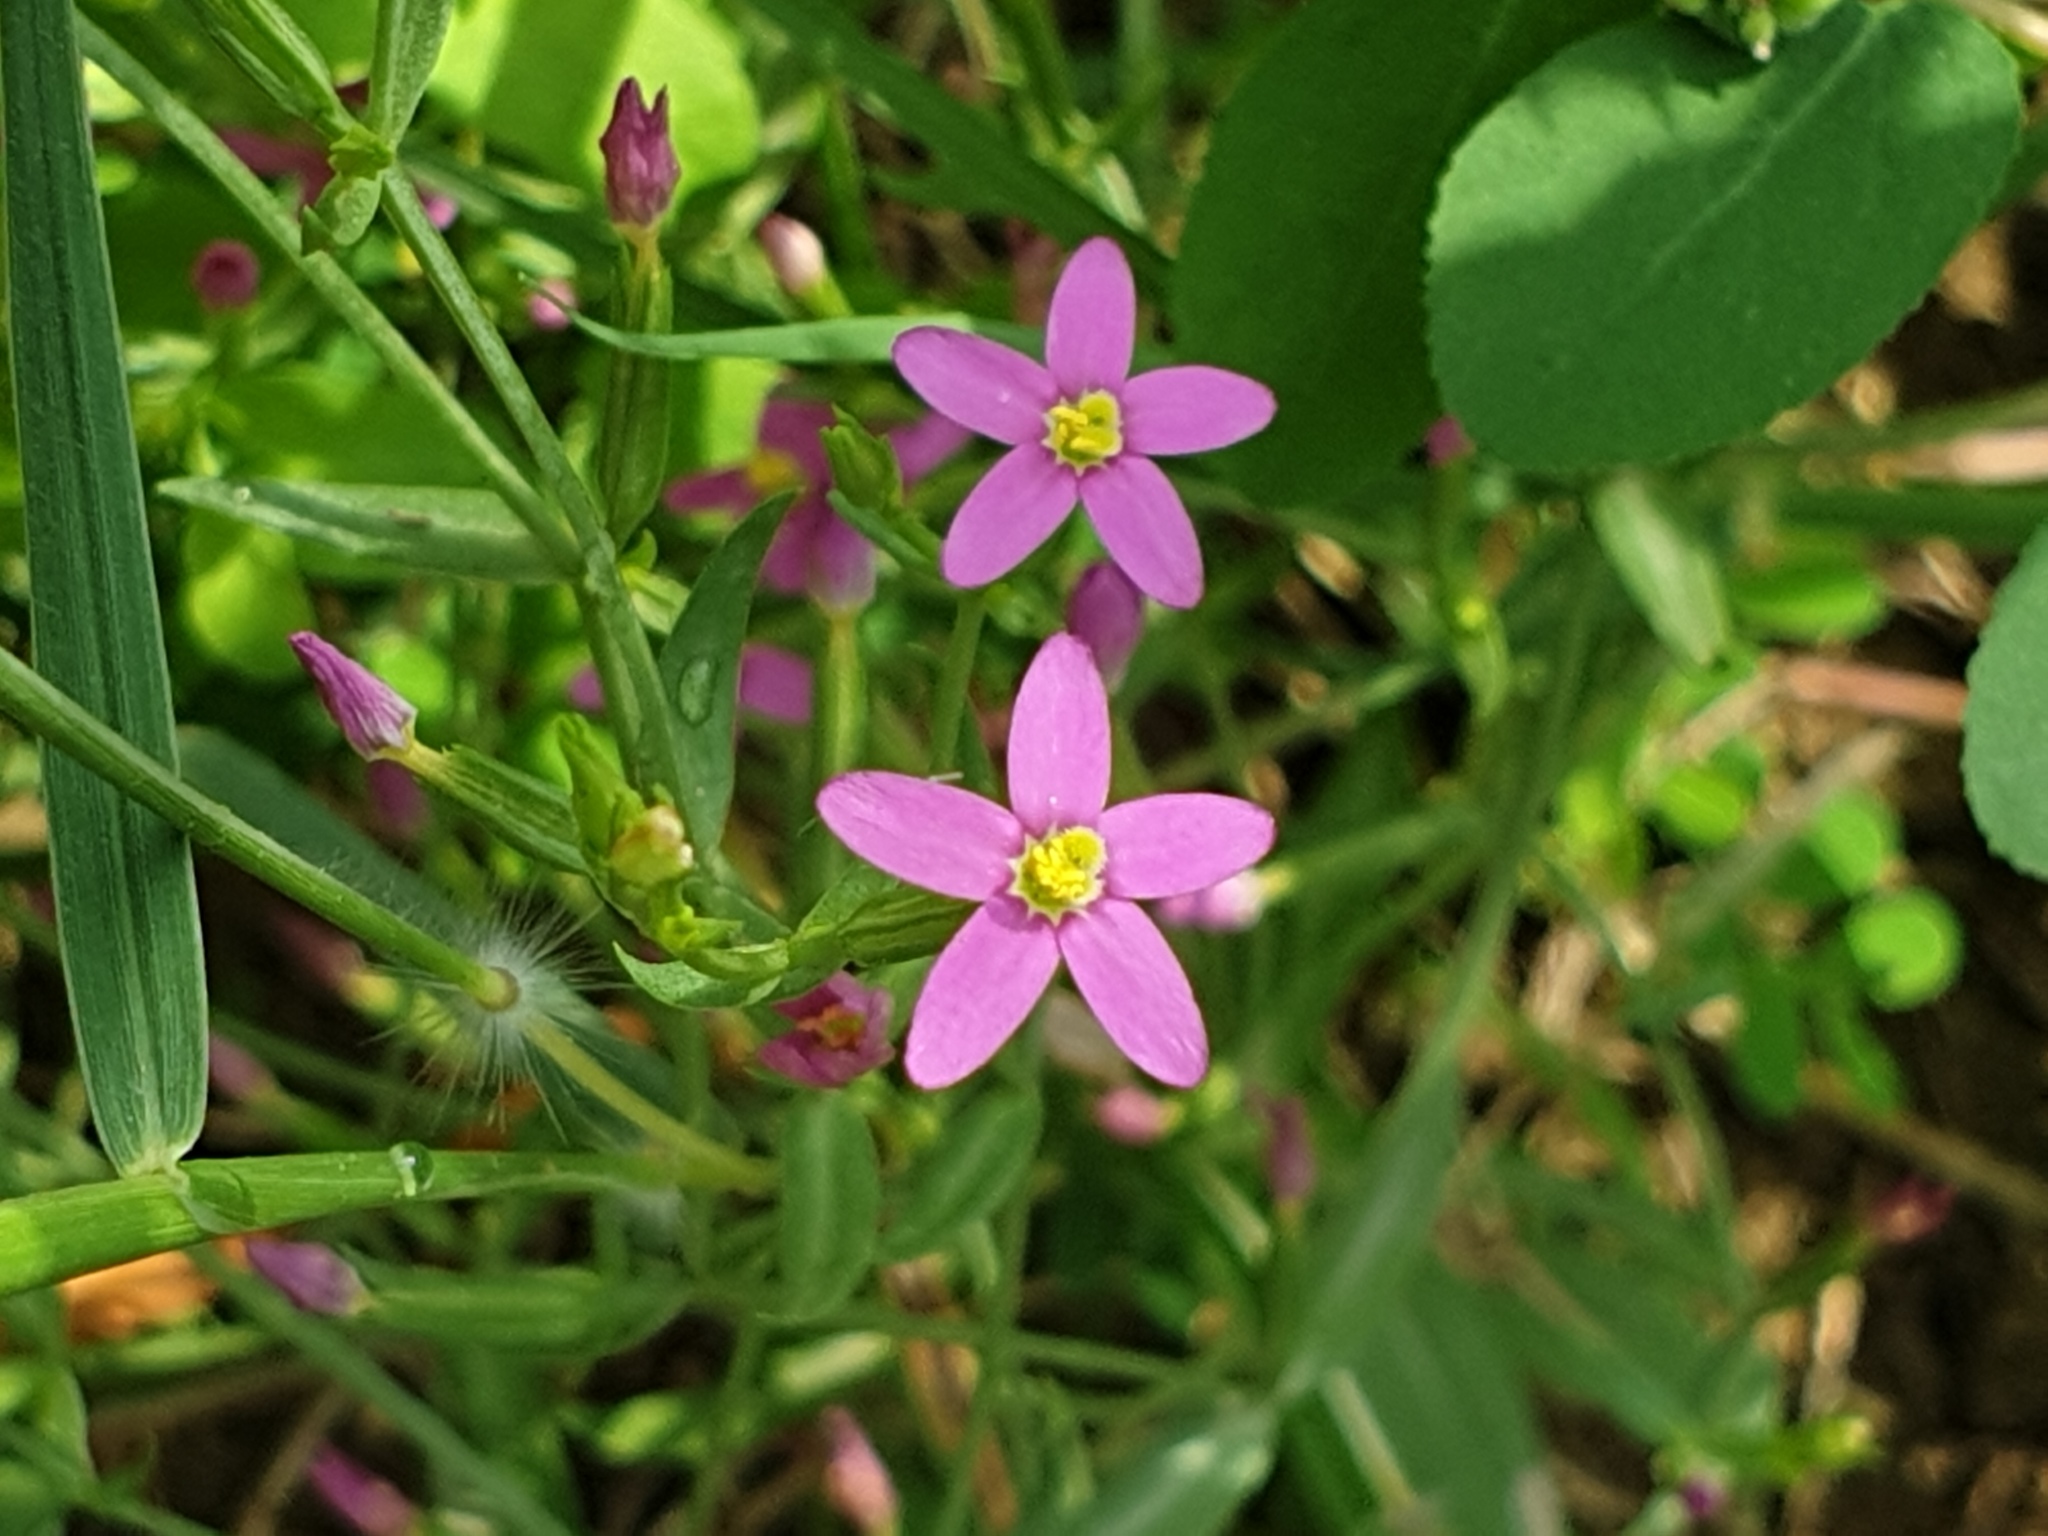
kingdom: Plantae
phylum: Tracheophyta
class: Magnoliopsida
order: Gentianales
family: Gentianaceae
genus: Centaurium
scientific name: Centaurium pulchellum
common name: Lesser centaury
